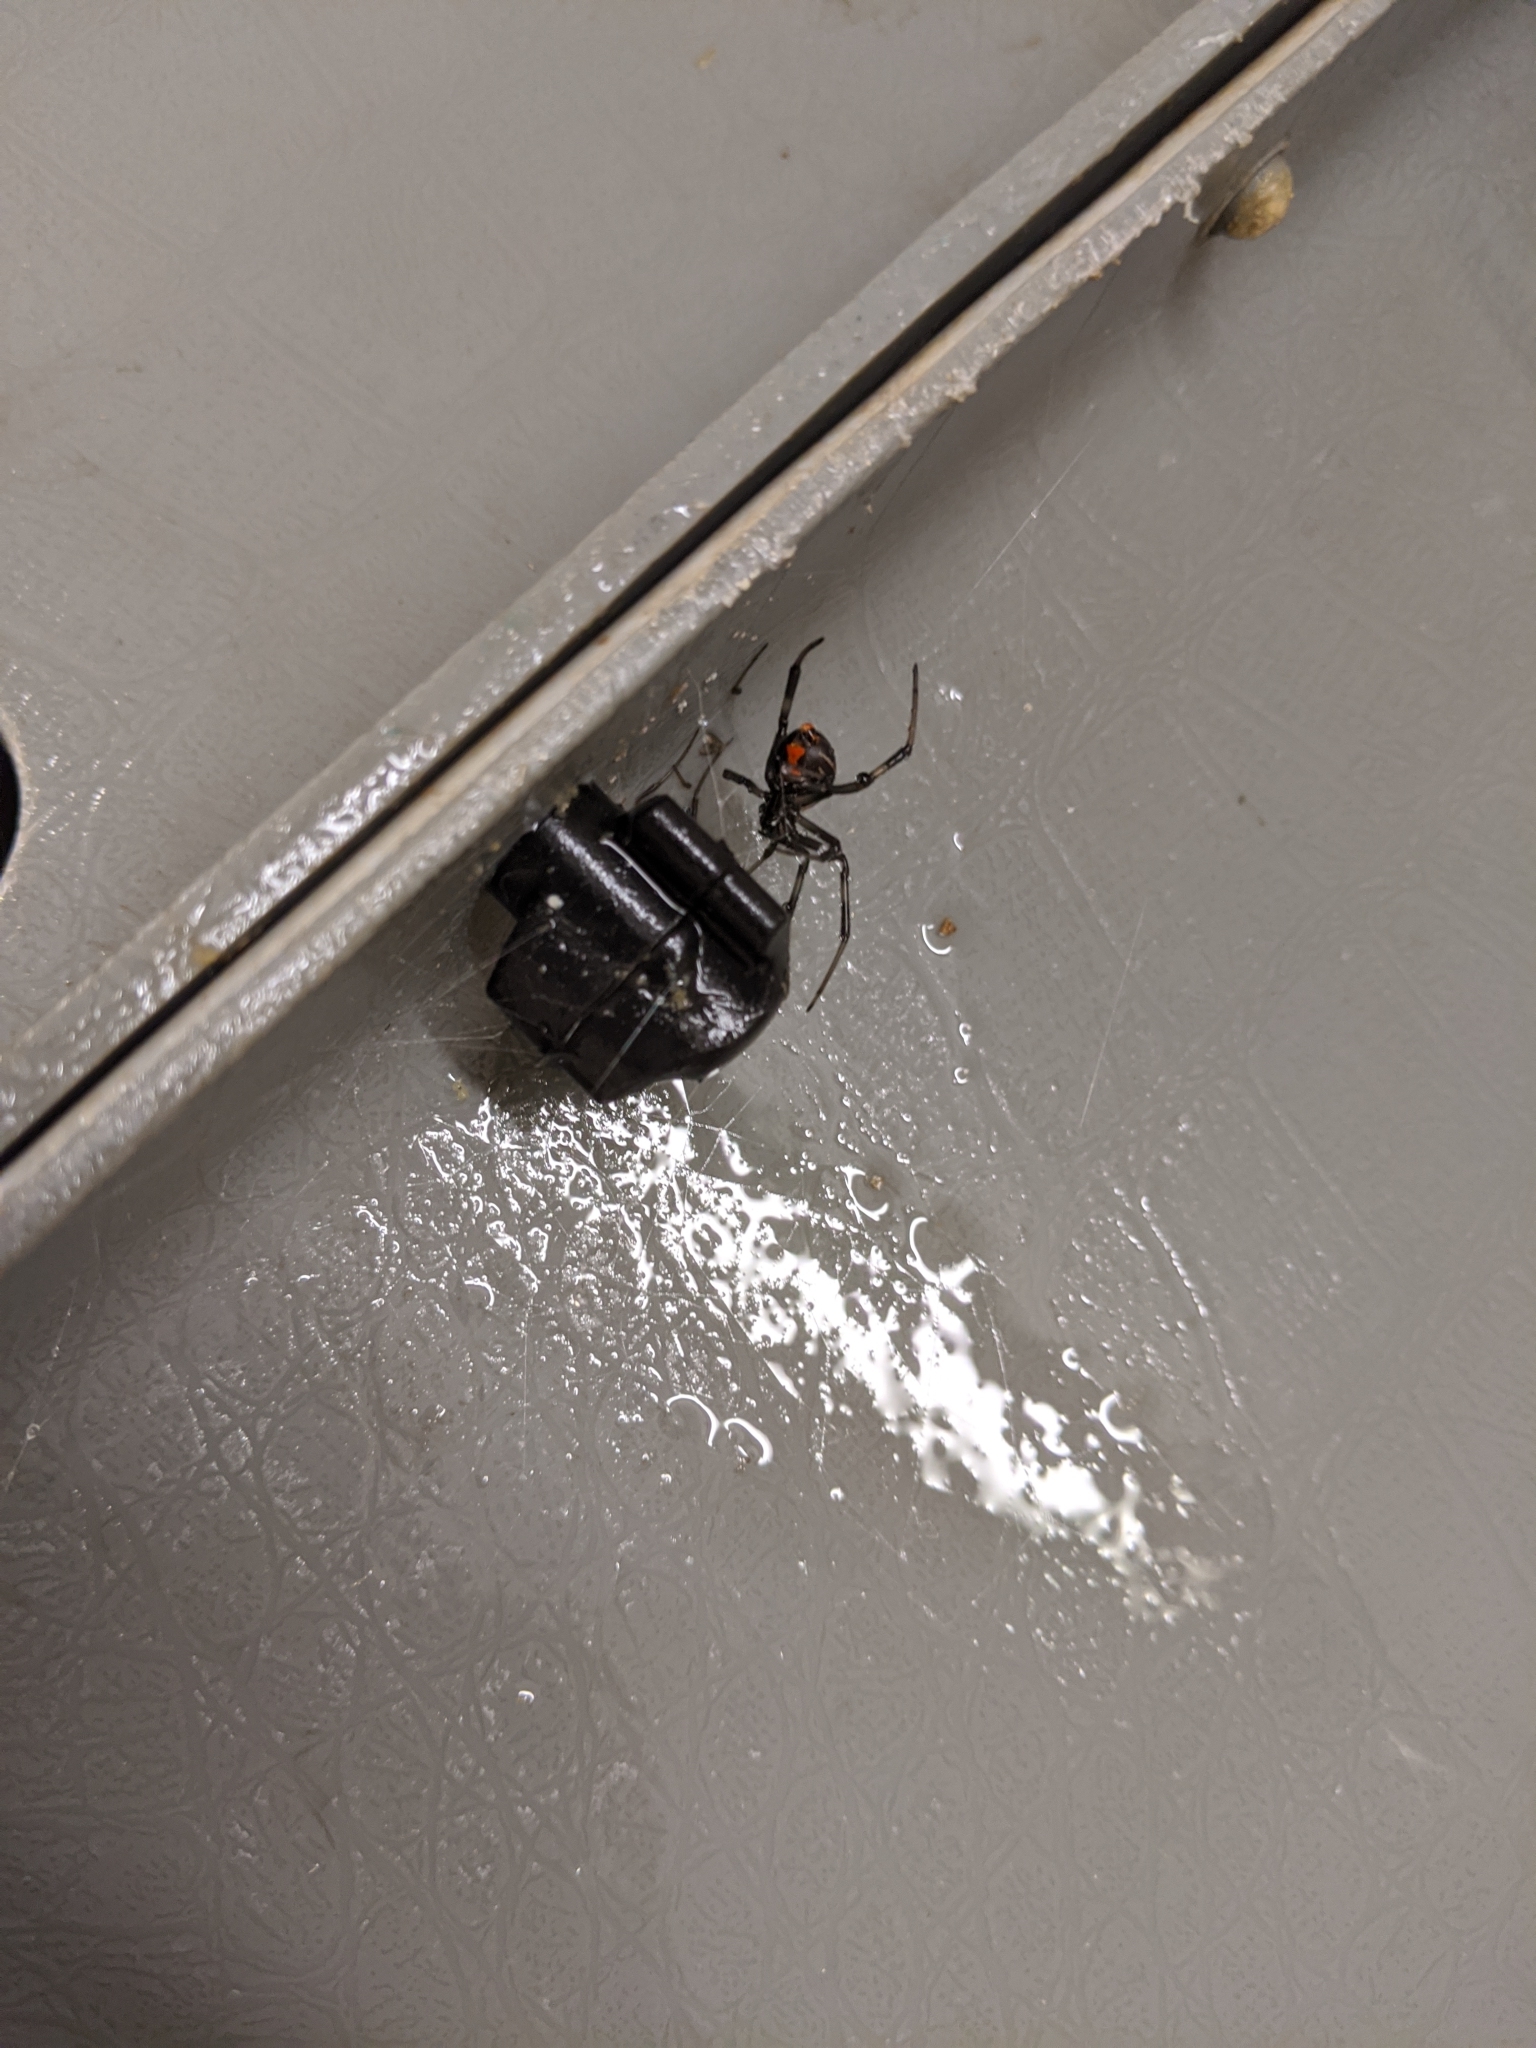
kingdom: Animalia
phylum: Arthropoda
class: Arachnida
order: Araneae
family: Theridiidae
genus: Latrodectus
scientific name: Latrodectus hesperus
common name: Western black widow
